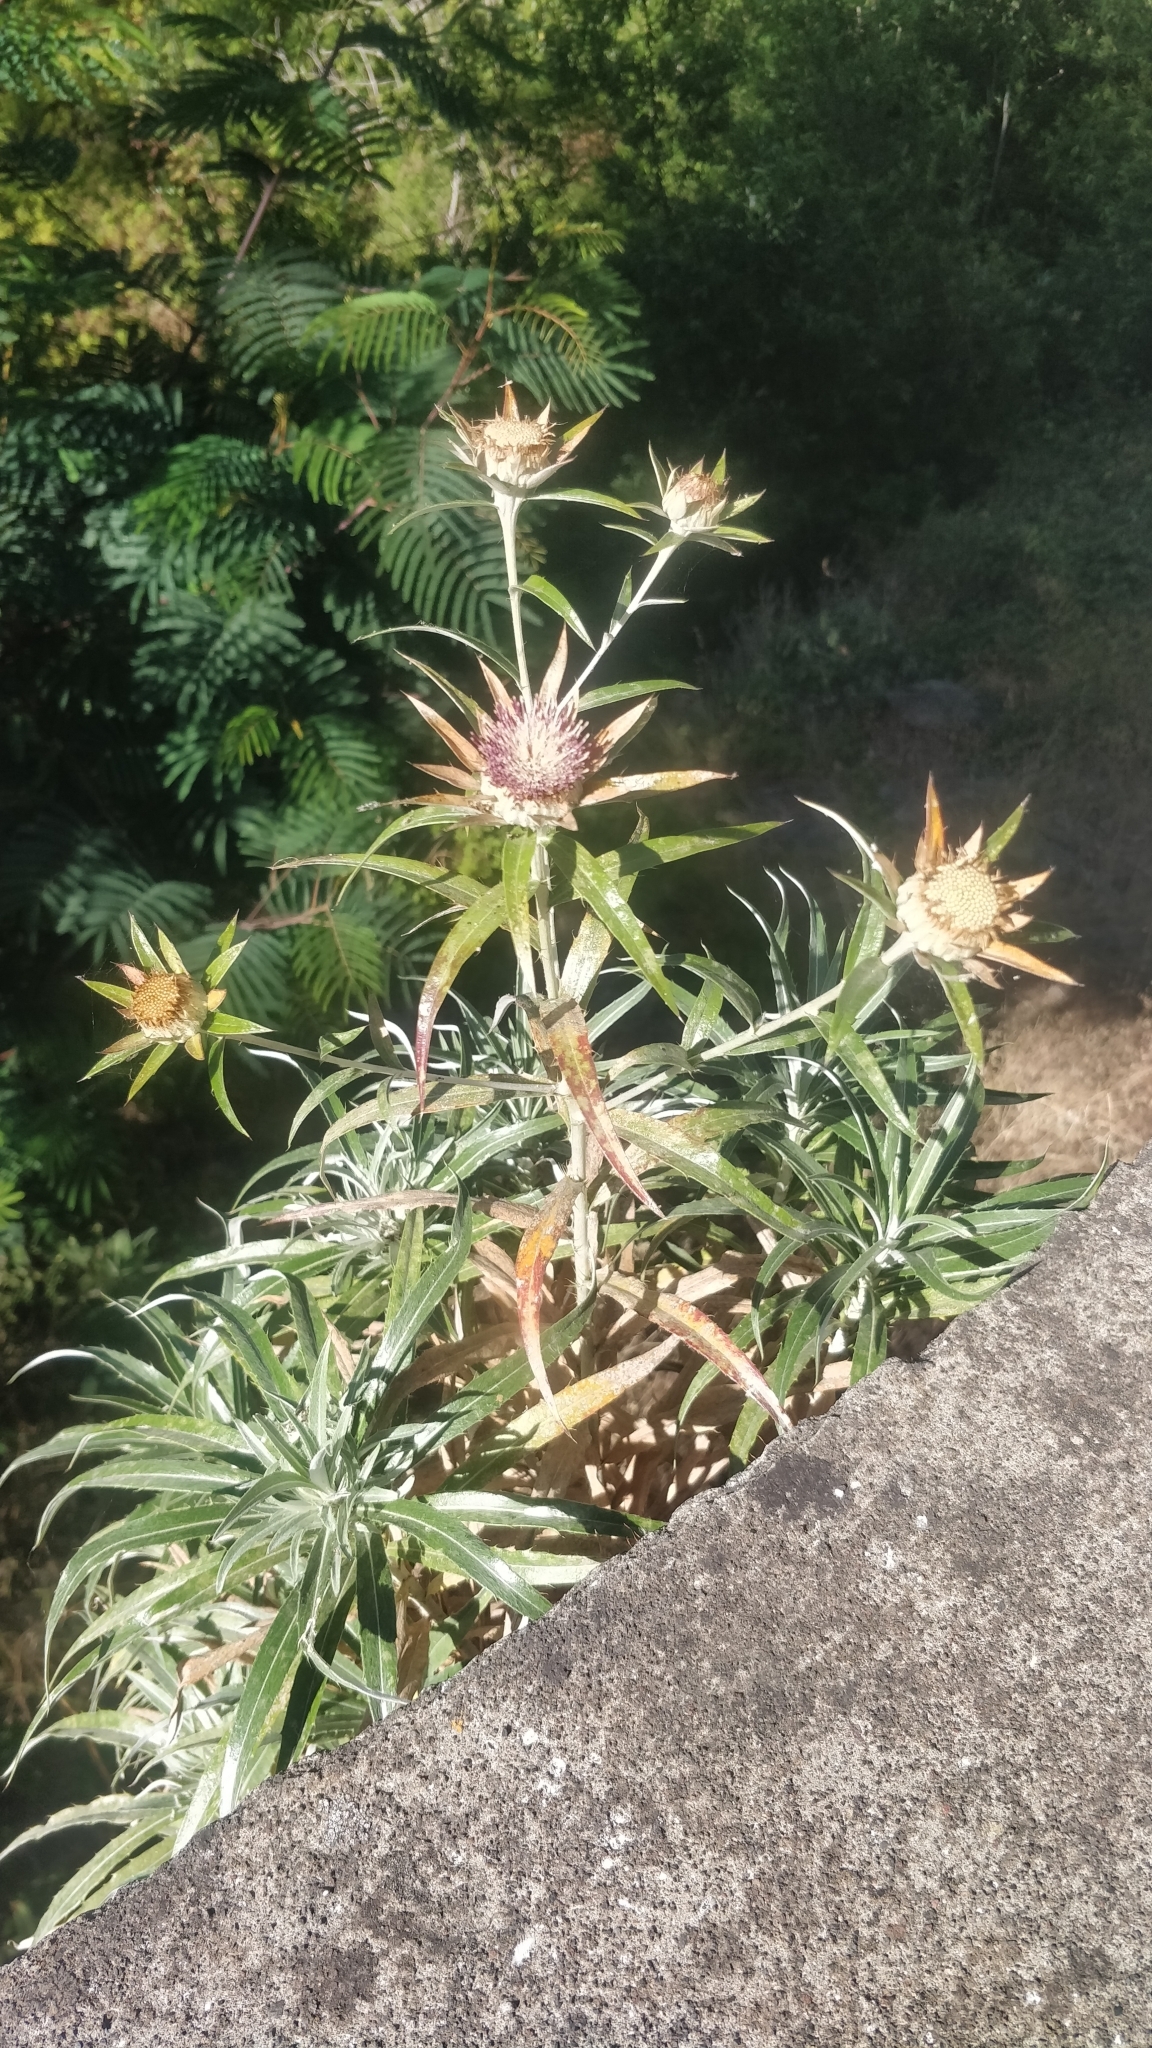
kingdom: Plantae
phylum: Tracheophyta
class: Magnoliopsida
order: Asterales
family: Asteraceae
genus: Carlina
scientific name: Carlina salicifolia
